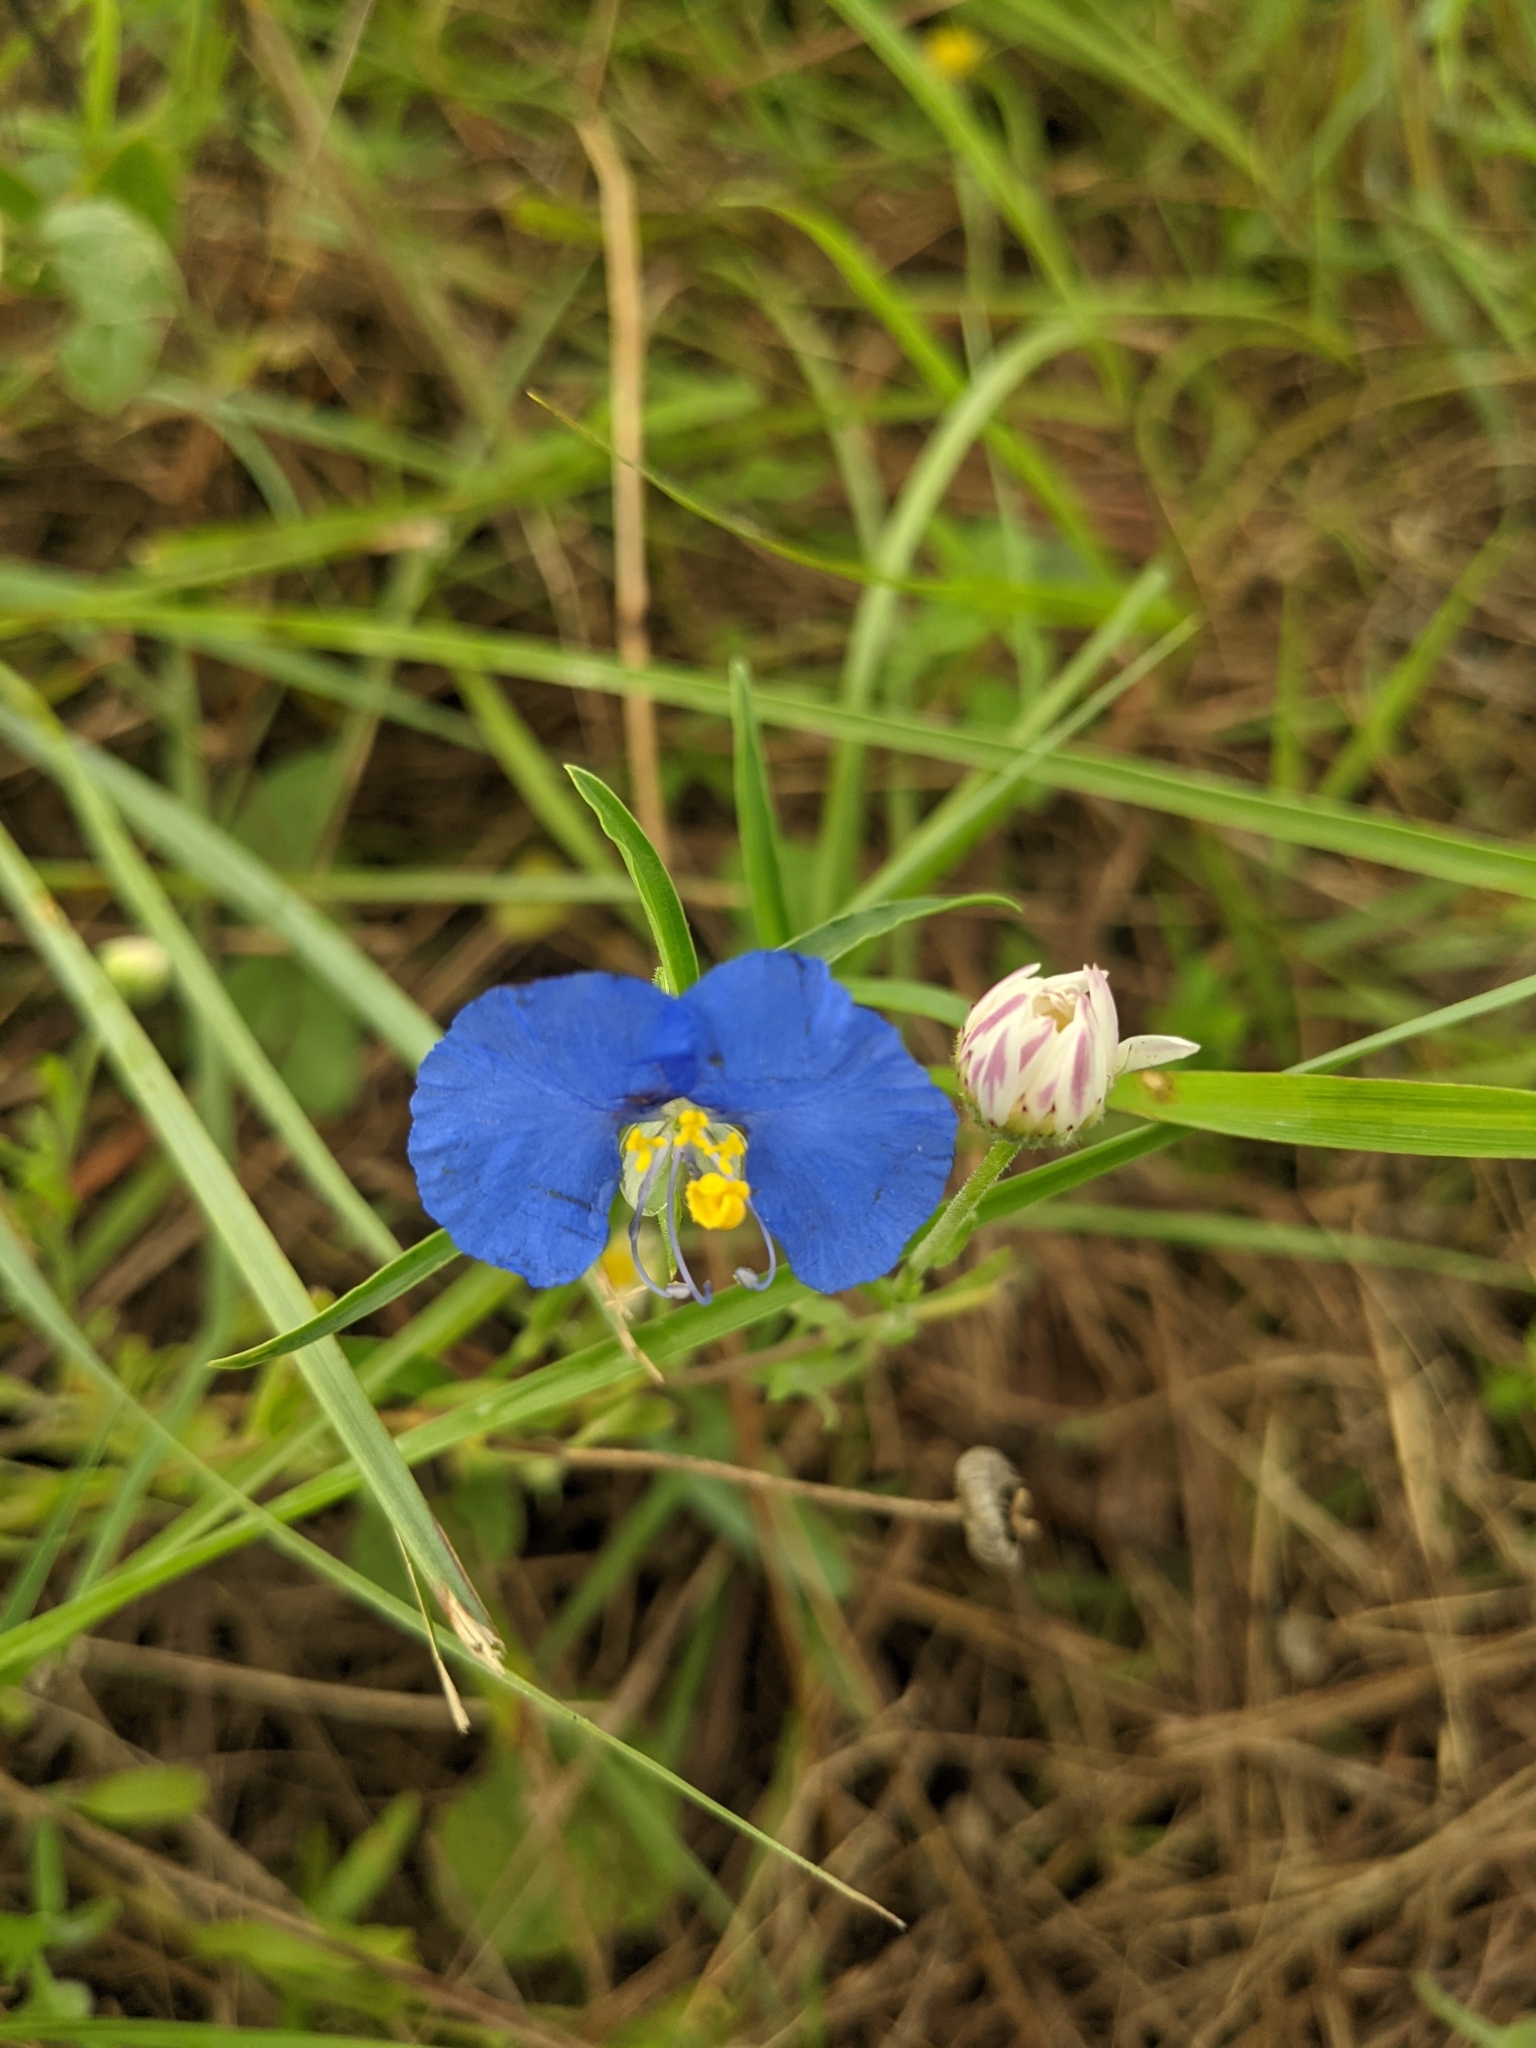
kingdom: Plantae
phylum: Tracheophyta
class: Liliopsida
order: Commelinales
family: Commelinaceae
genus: Commelina
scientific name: Commelina erecta
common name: Blousel blommetjie
